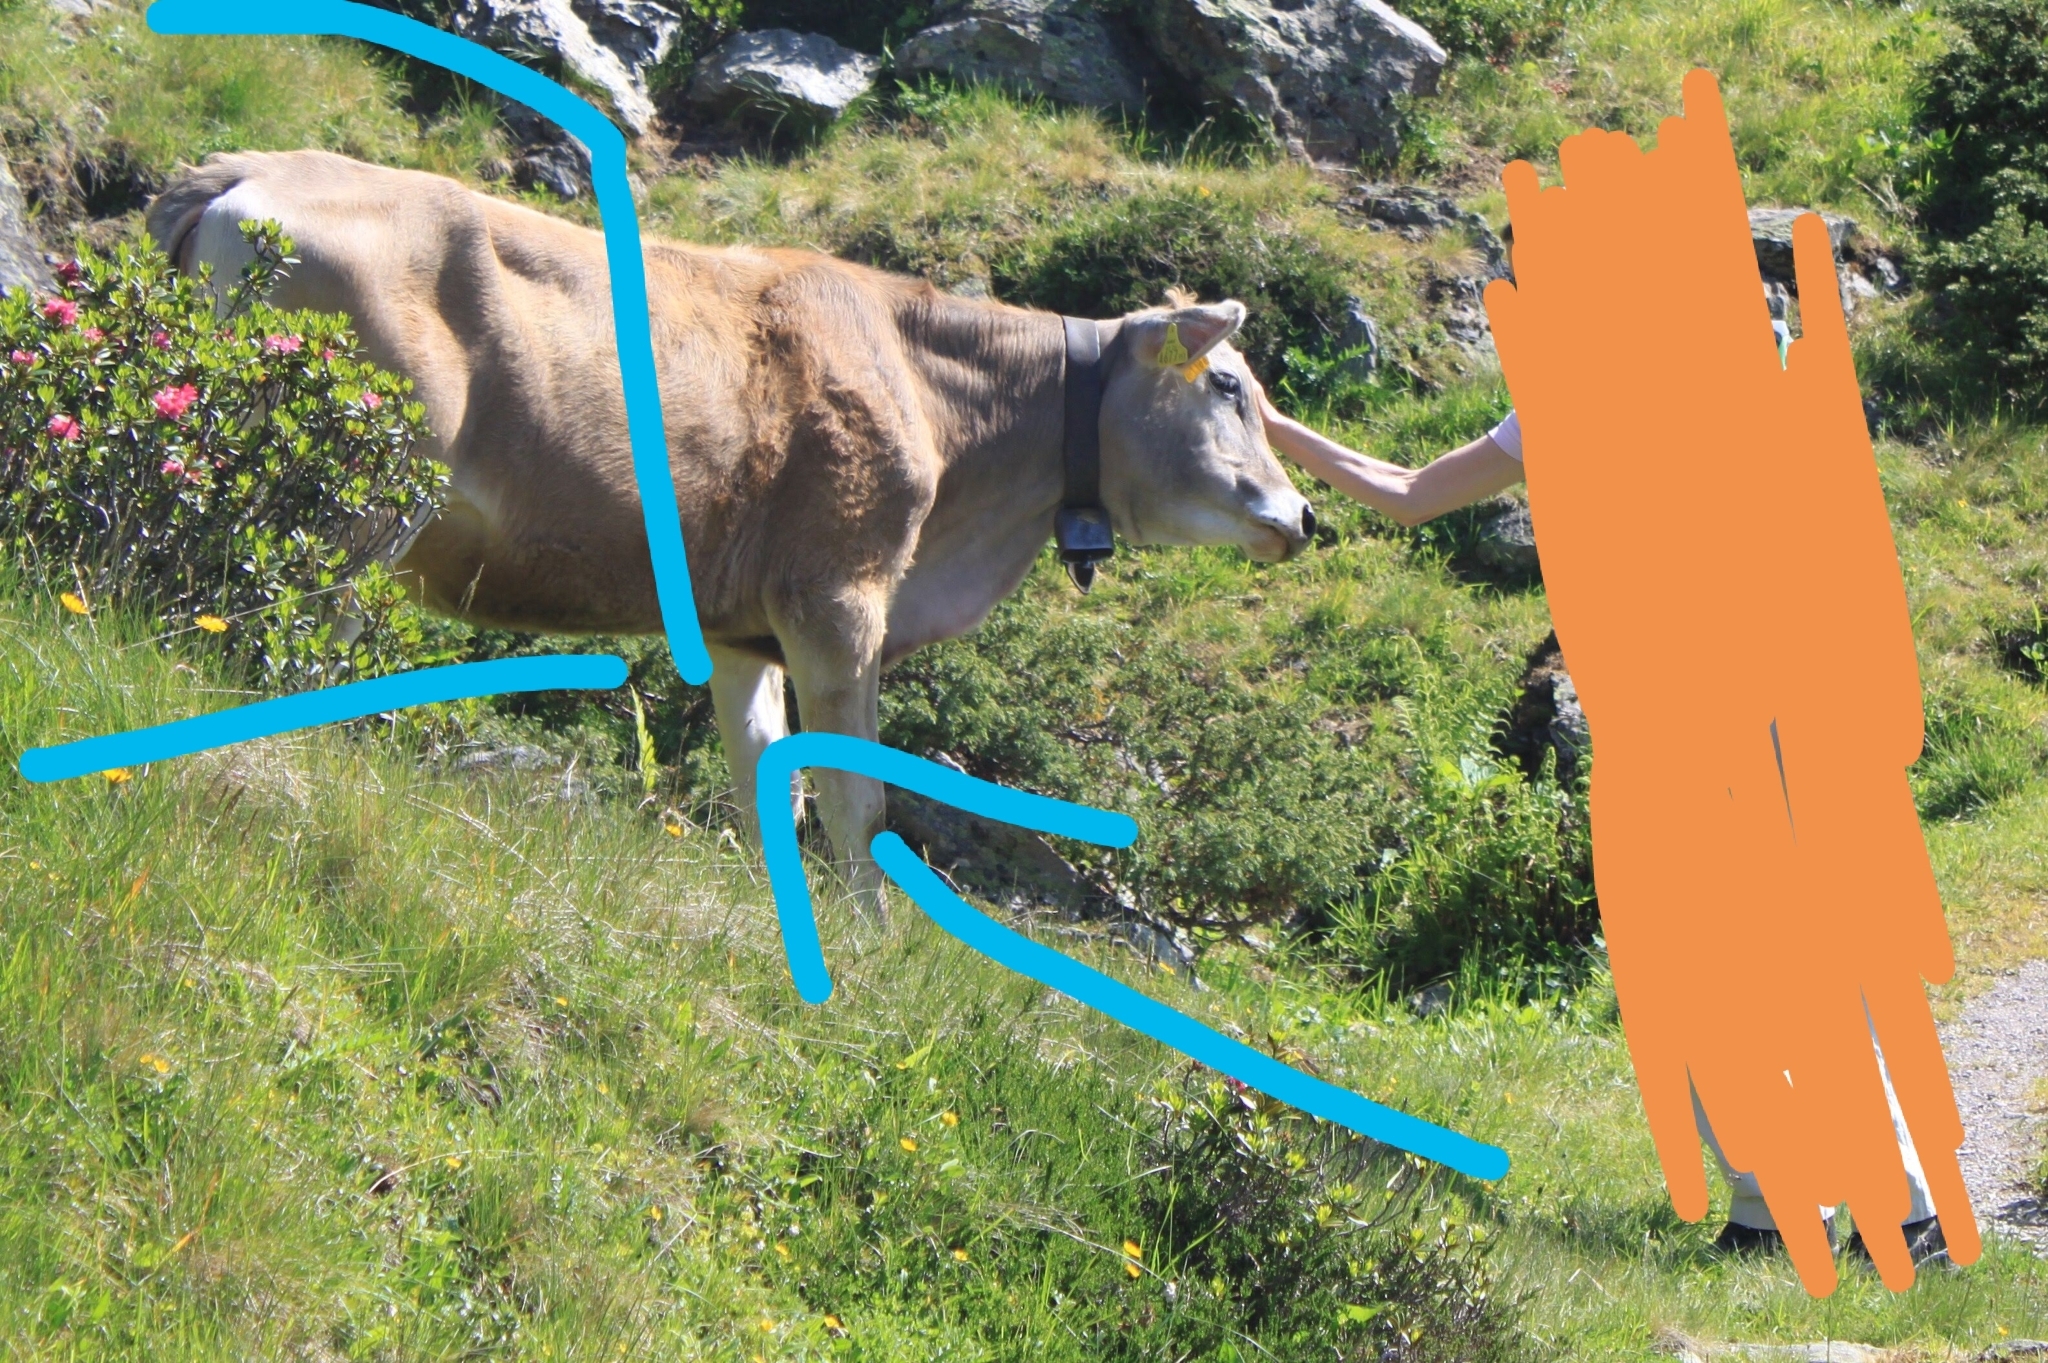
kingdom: Plantae
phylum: Tracheophyta
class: Magnoliopsida
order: Ericales
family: Ericaceae
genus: Rhododendron
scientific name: Rhododendron
